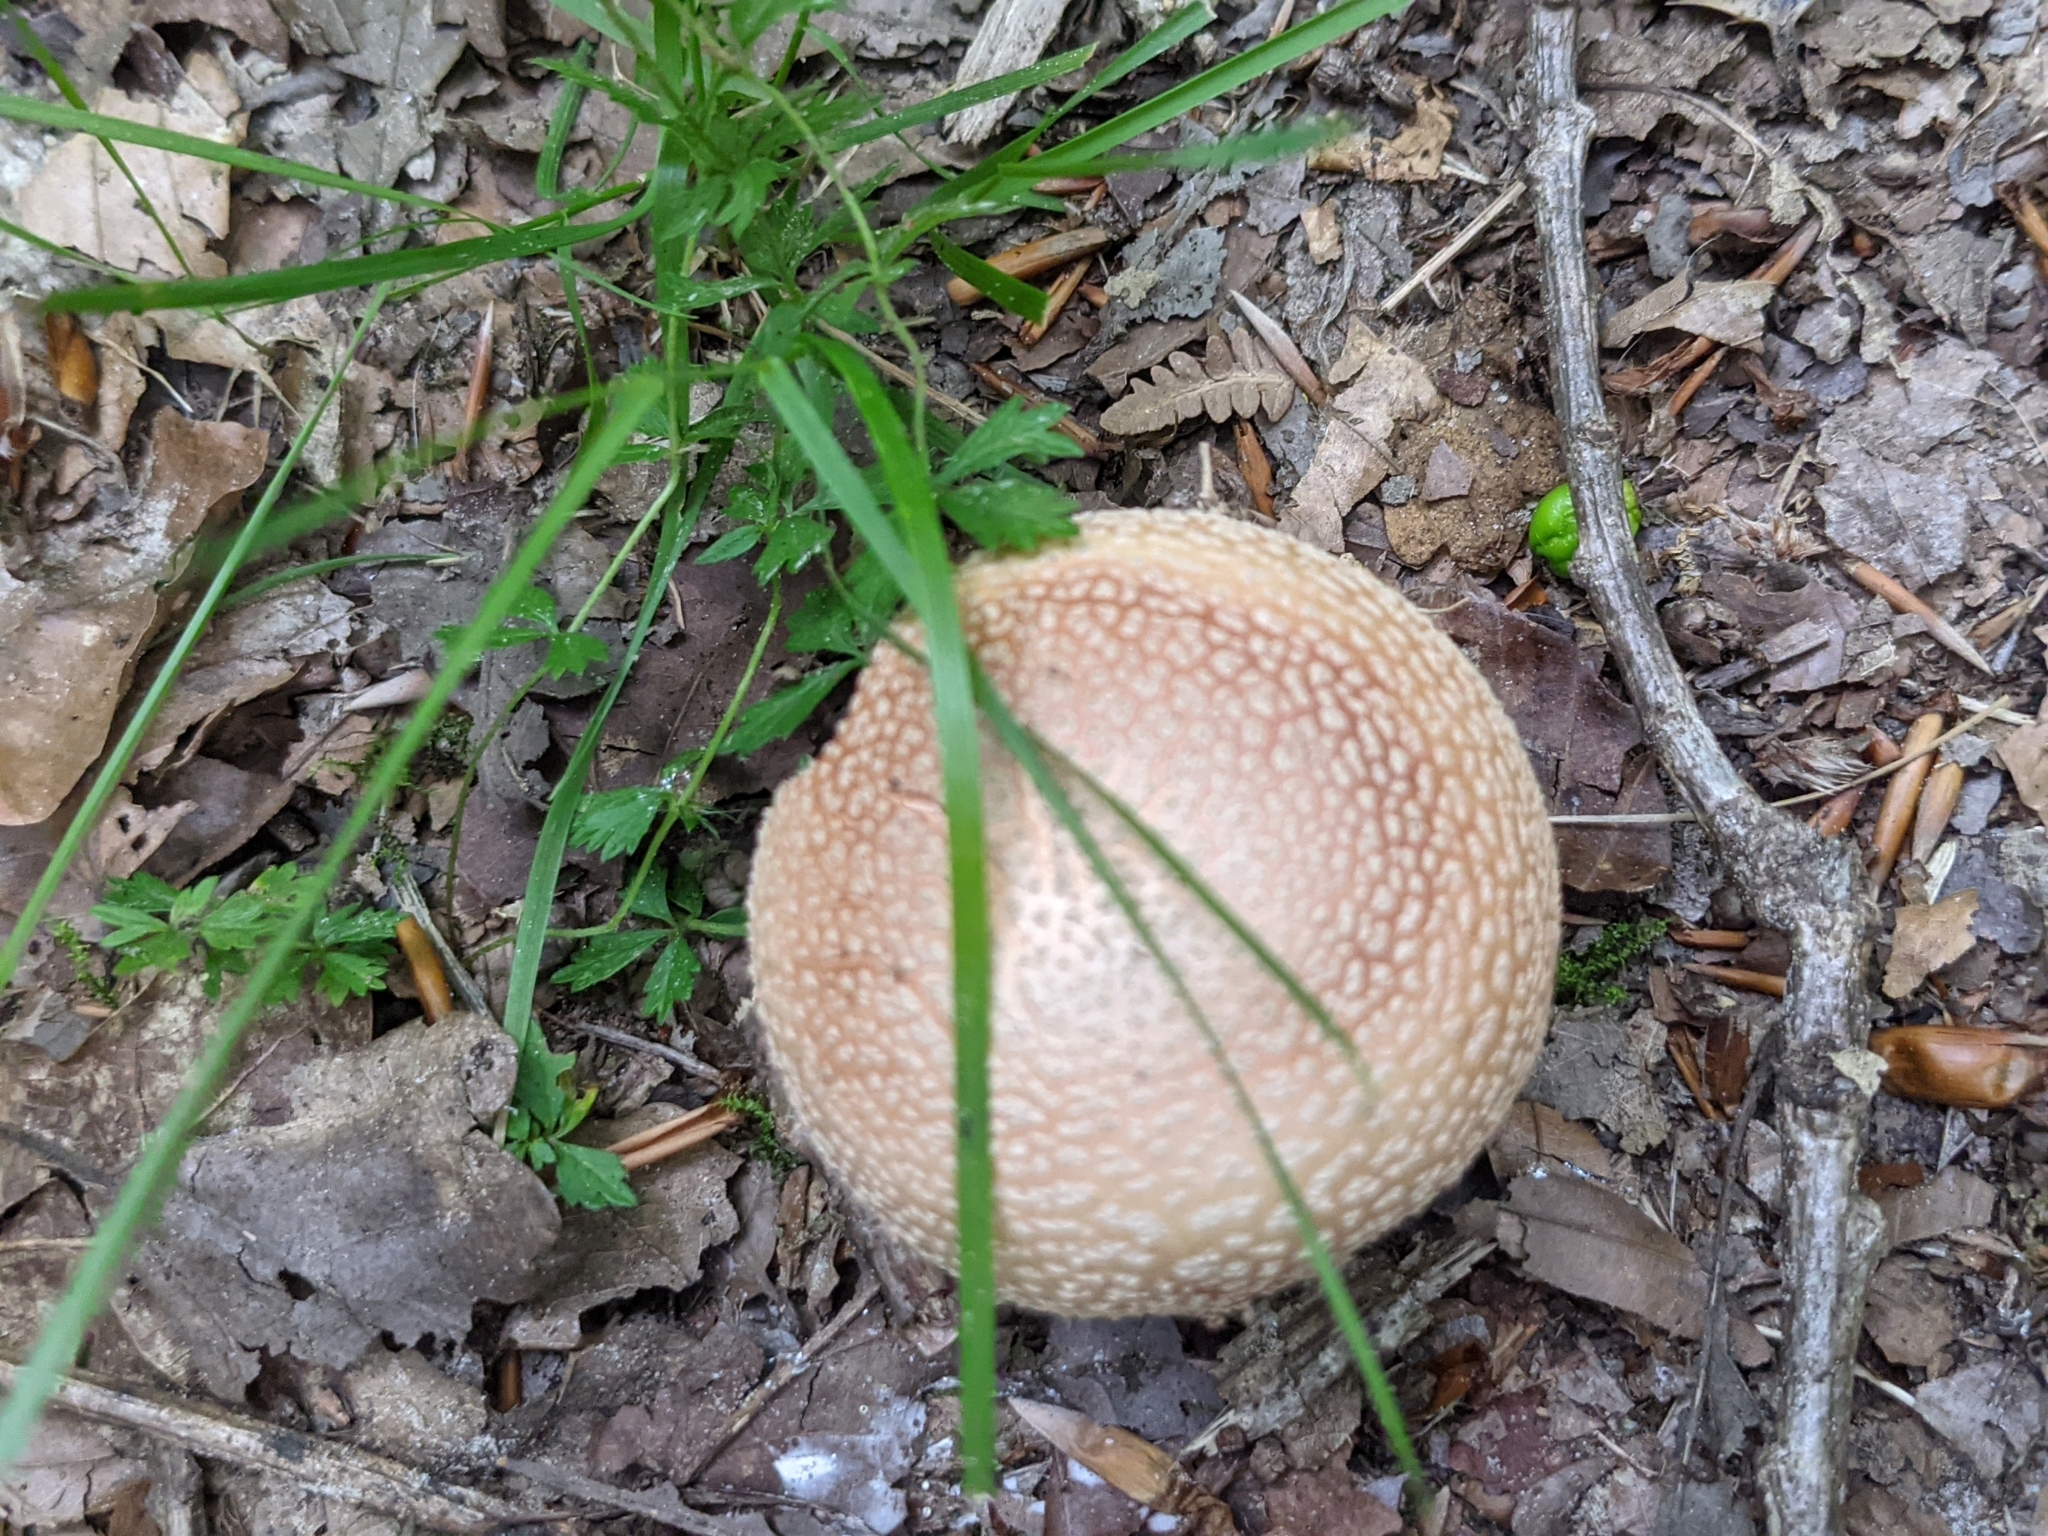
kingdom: Fungi
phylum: Basidiomycota
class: Agaricomycetes
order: Agaricales
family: Amanitaceae
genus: Amanita
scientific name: Amanita rubescens
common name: Blusher
